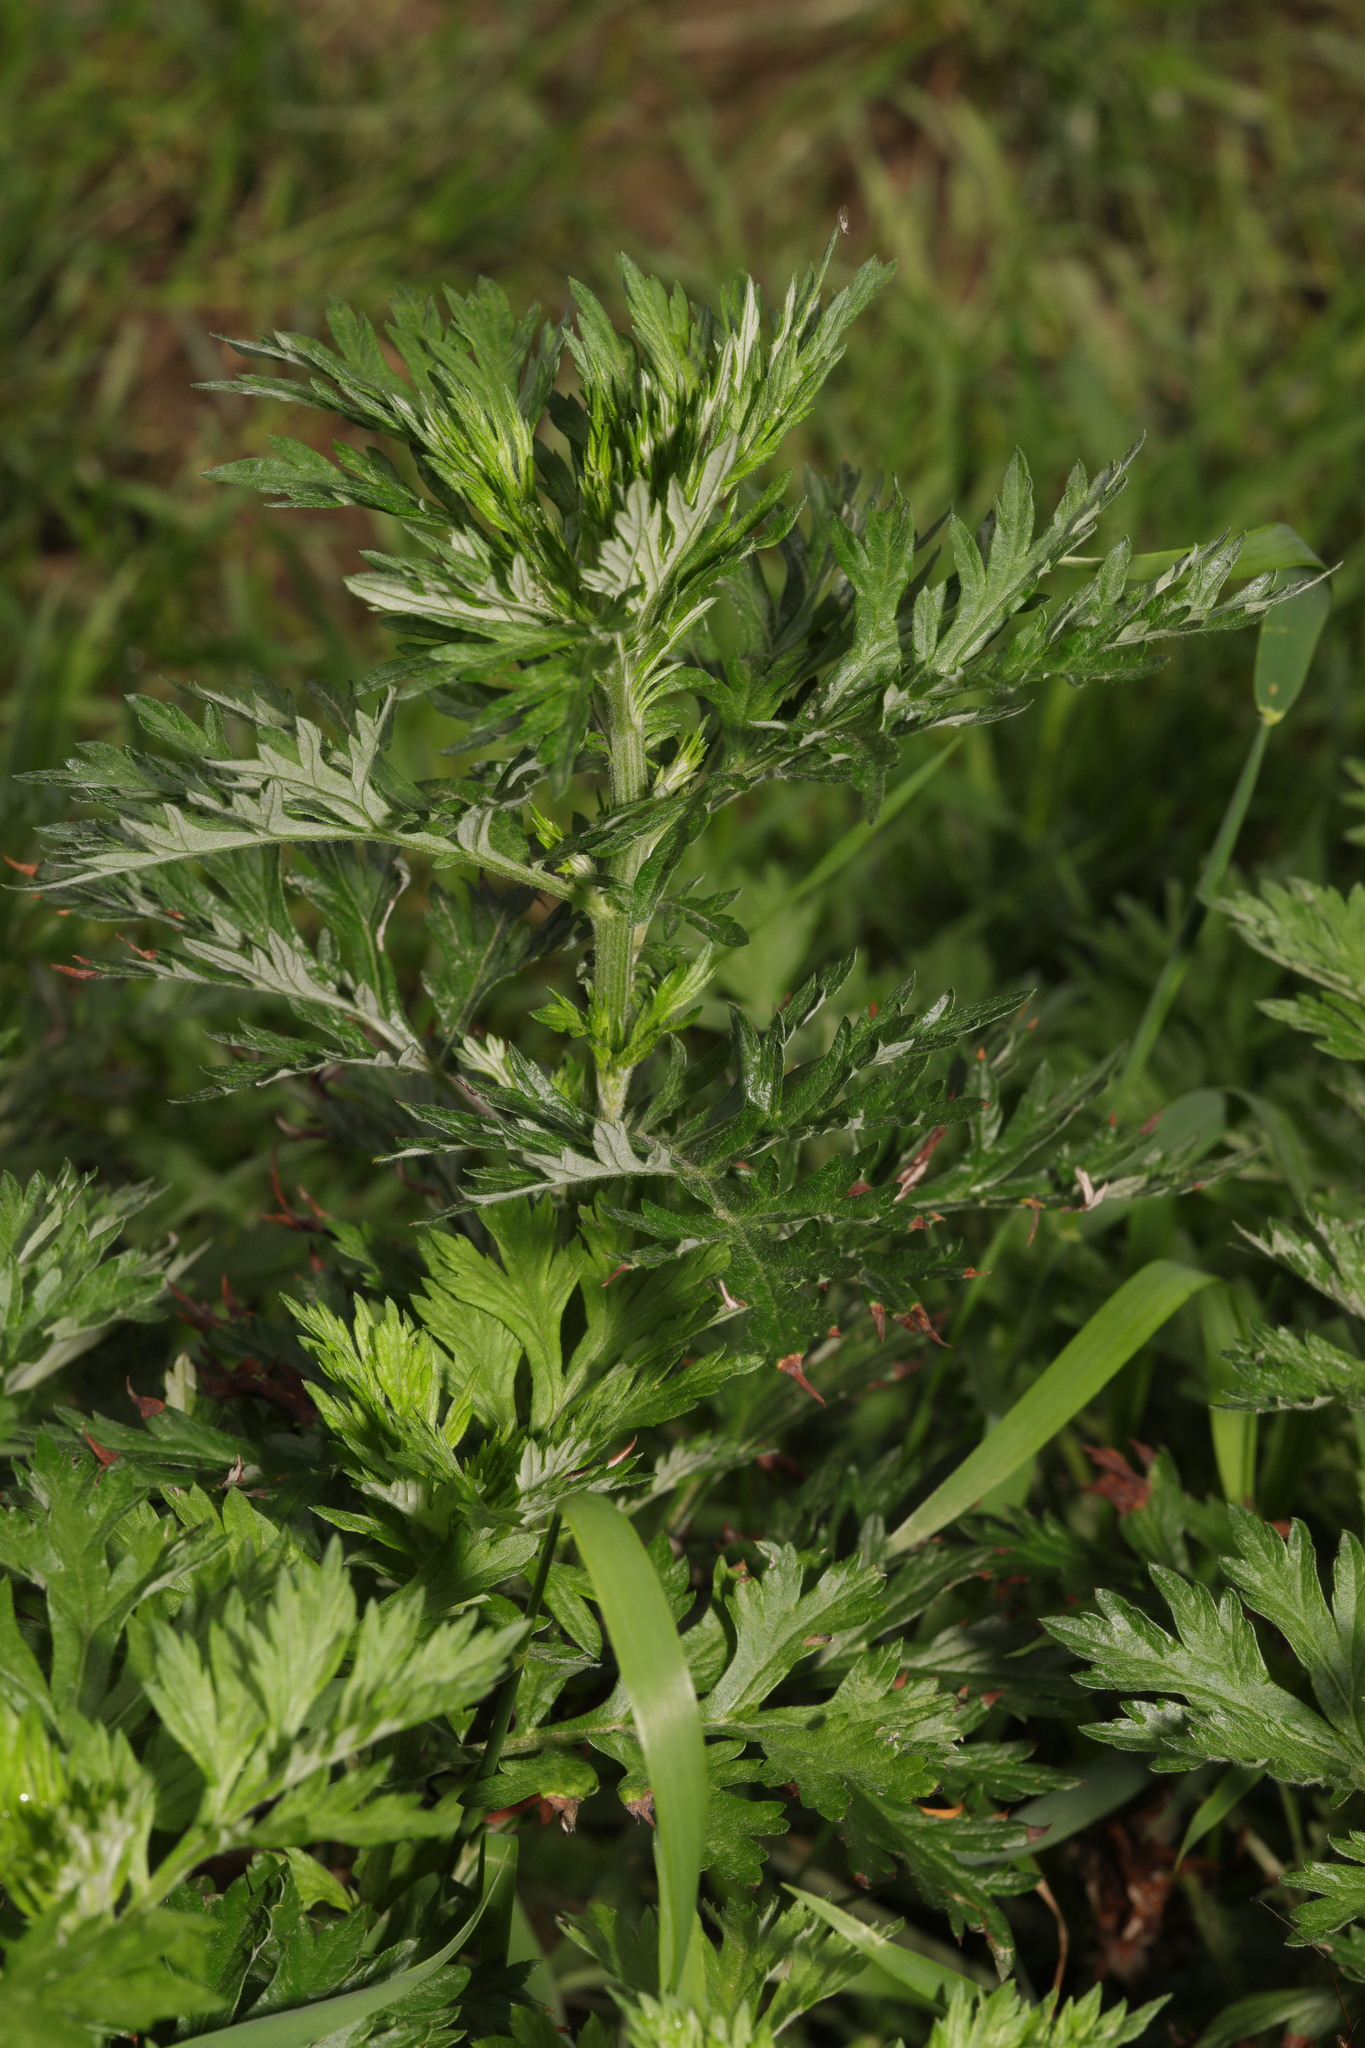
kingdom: Plantae
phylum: Tracheophyta
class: Magnoliopsida
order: Asterales
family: Asteraceae
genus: Artemisia
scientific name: Artemisia vulgaris
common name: Mugwort
